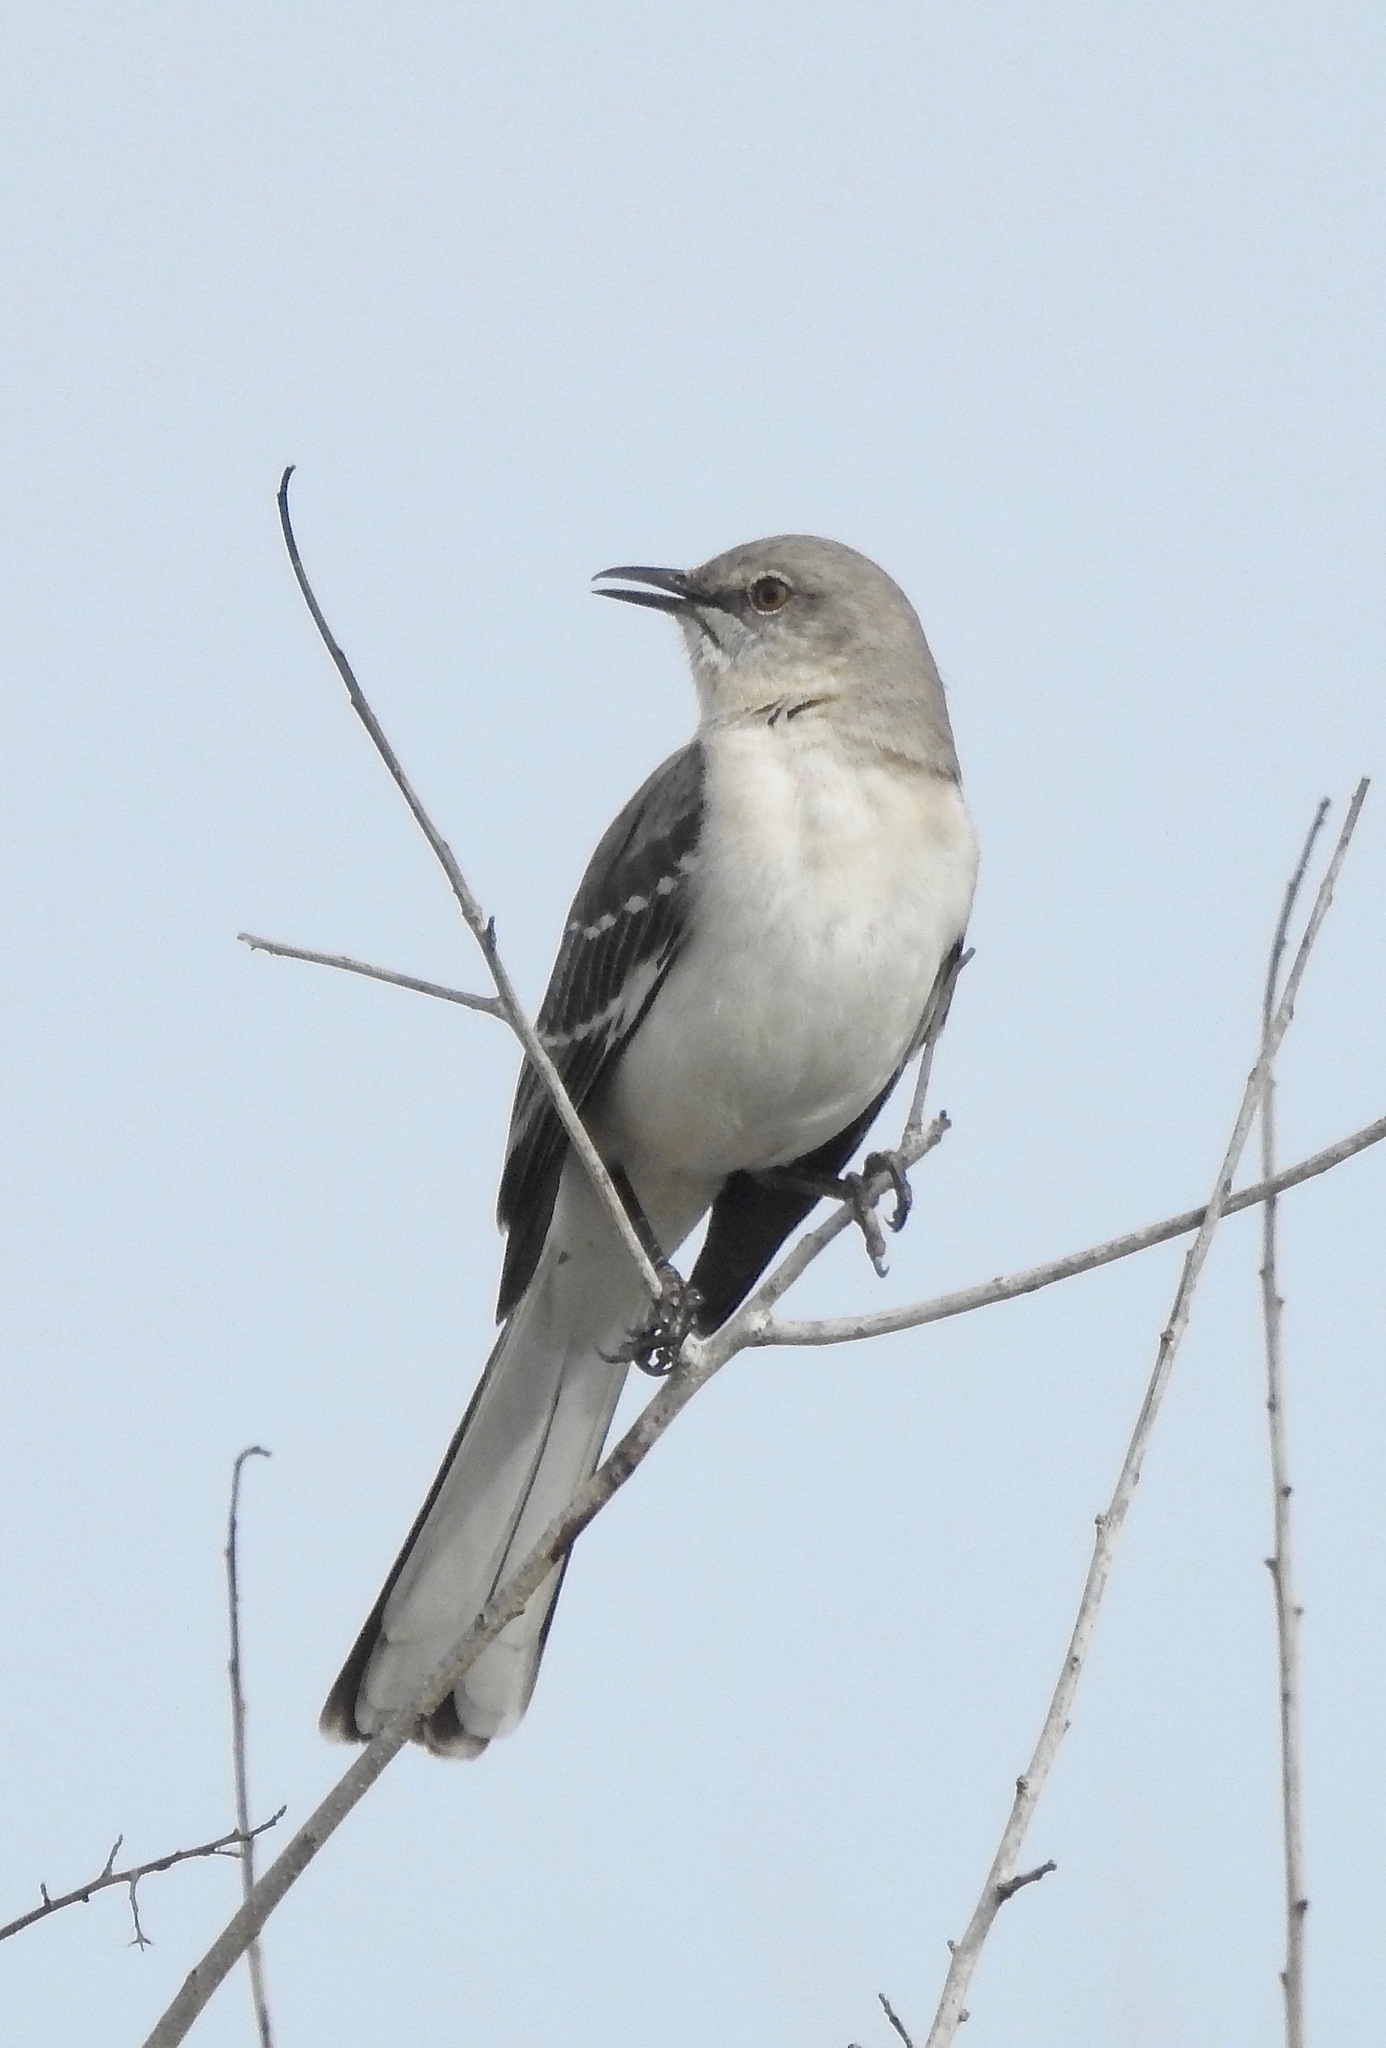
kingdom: Animalia
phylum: Chordata
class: Aves
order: Passeriformes
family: Mimidae
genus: Mimus
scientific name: Mimus polyglottos
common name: Northern mockingbird
